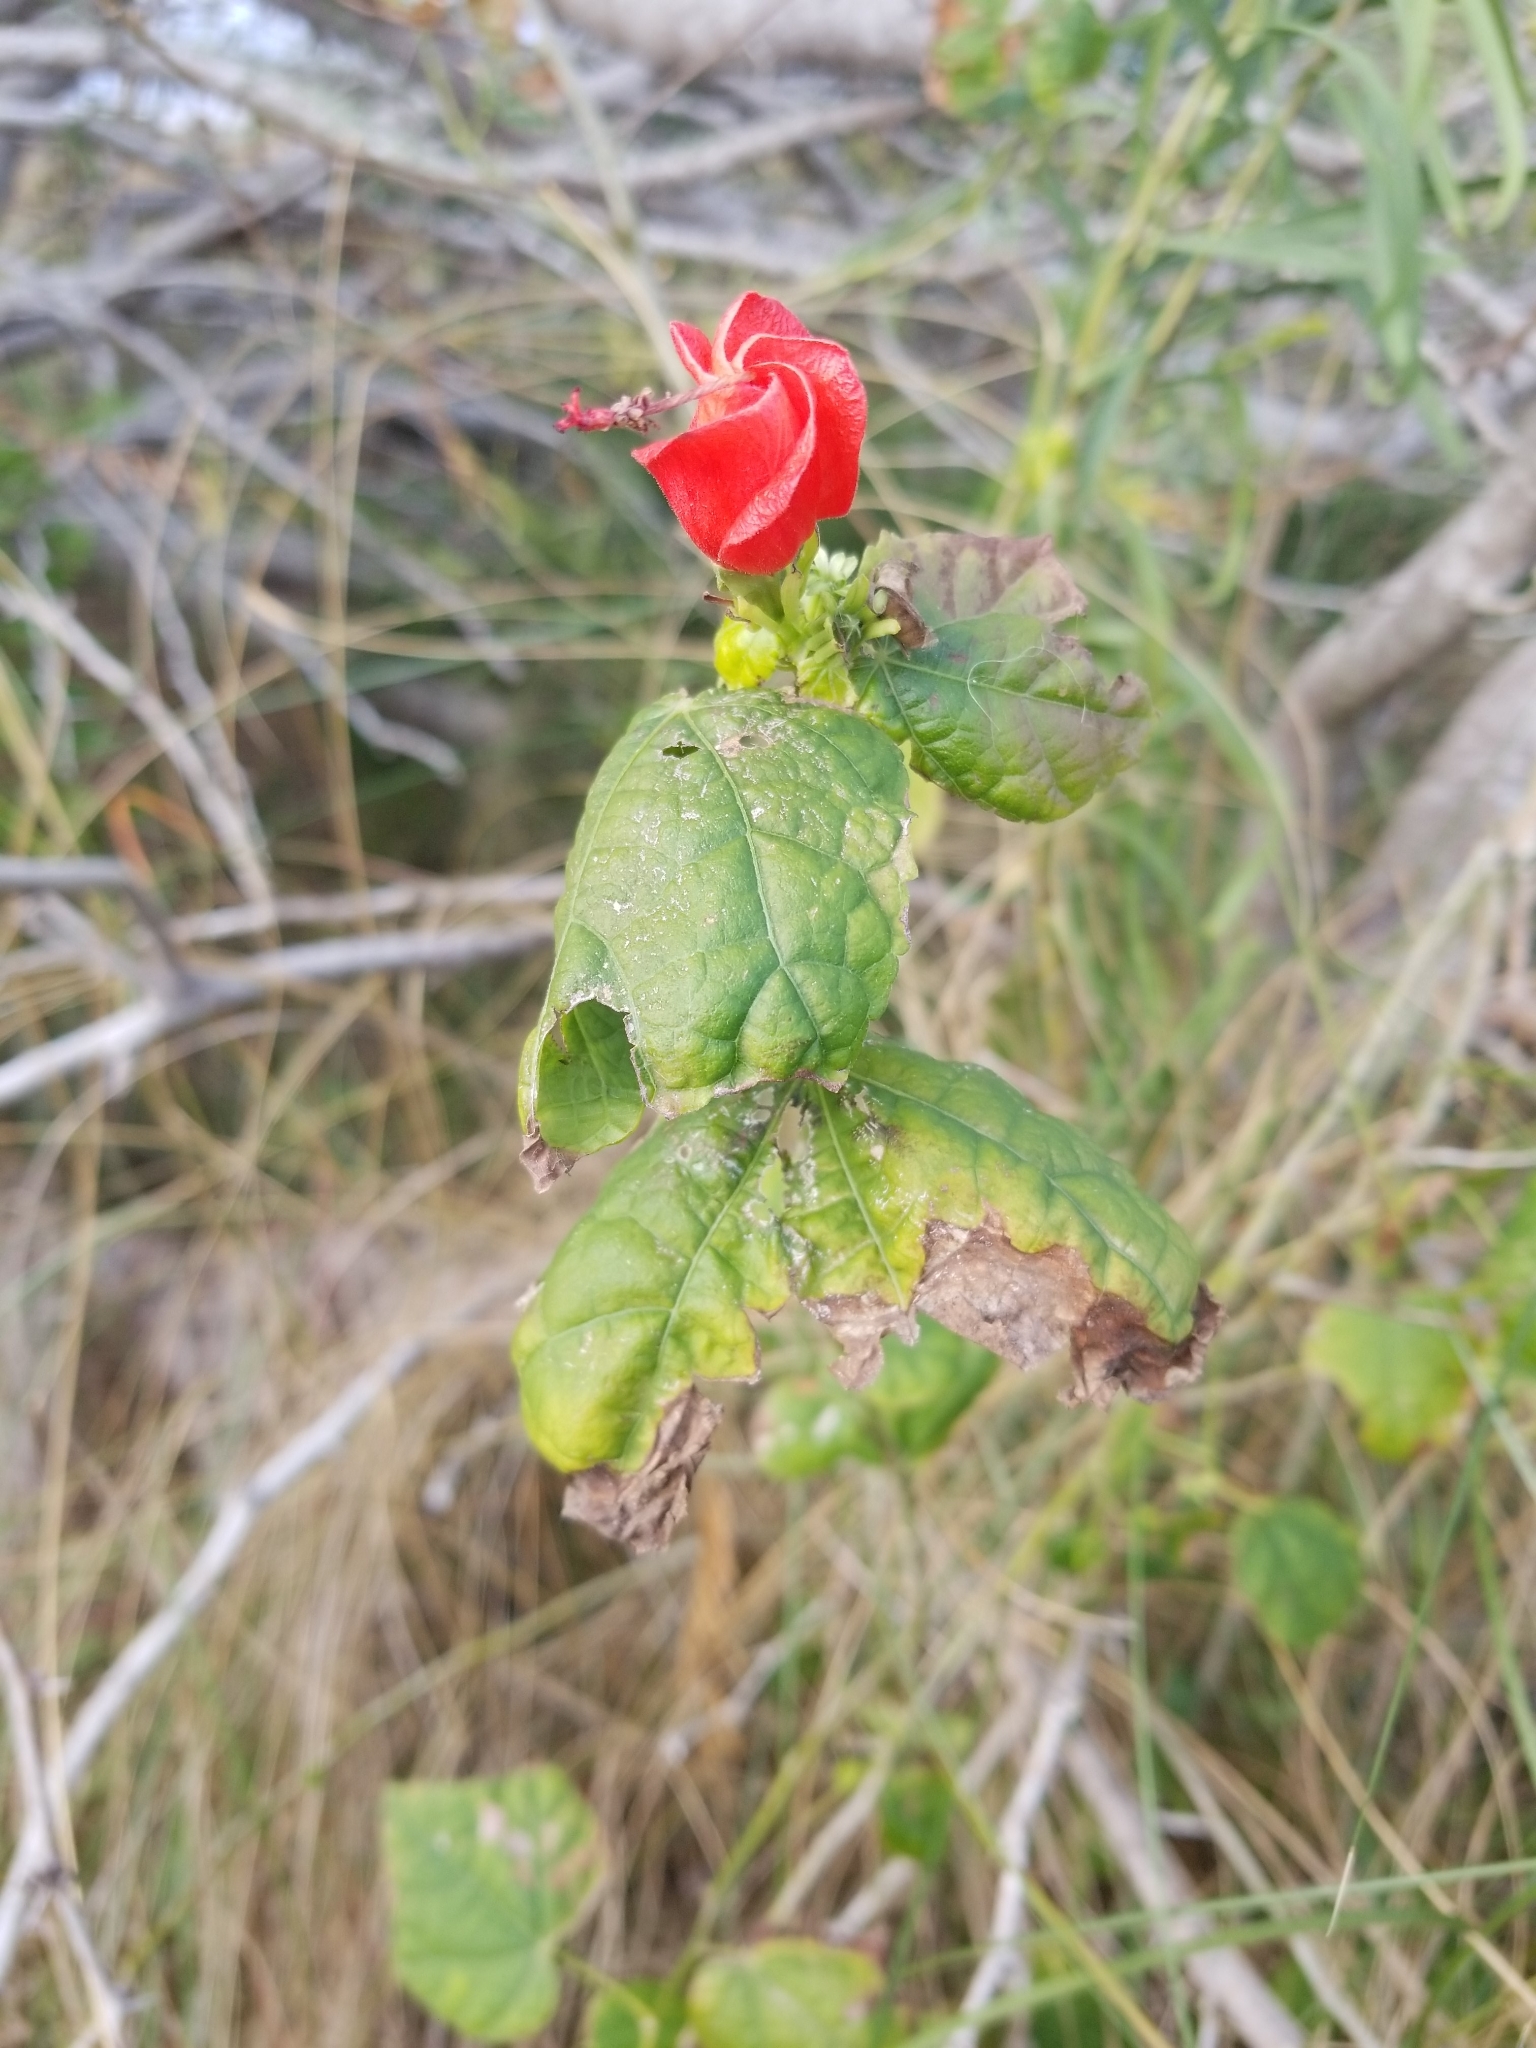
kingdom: Plantae
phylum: Tracheophyta
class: Magnoliopsida
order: Malvales
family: Malvaceae
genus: Malvaviscus
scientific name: Malvaviscus arboreus
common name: Wax mallow
